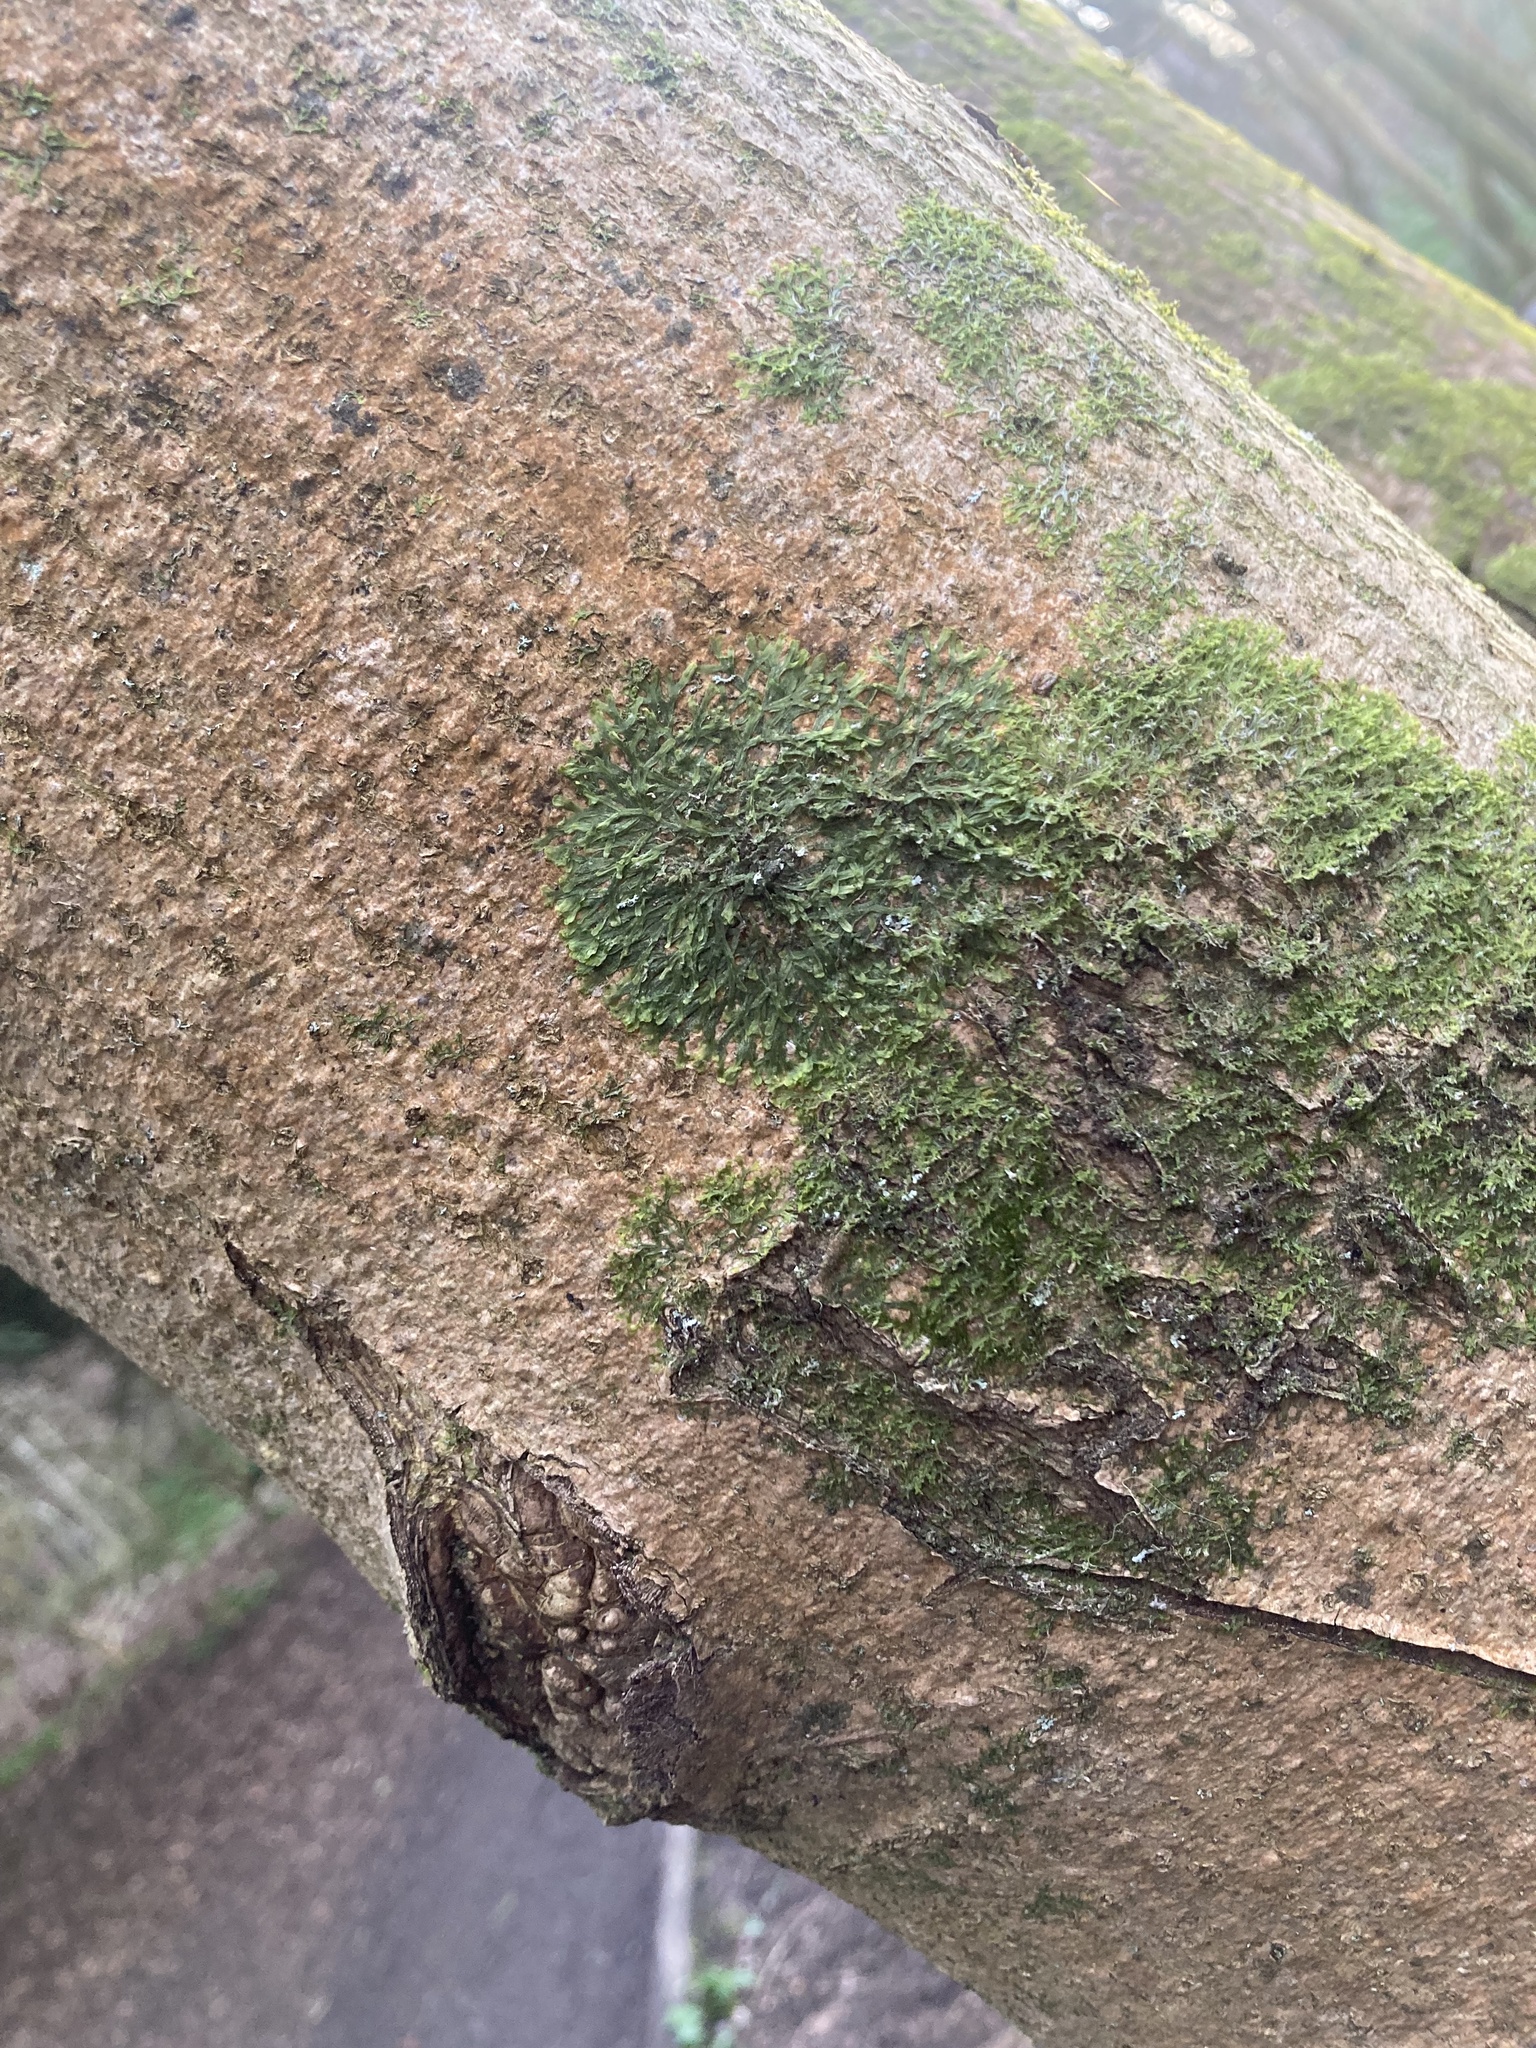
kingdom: Plantae
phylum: Marchantiophyta
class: Jungermanniopsida
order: Metzgeriales
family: Metzgeriaceae
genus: Metzgeria
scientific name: Metzgeria furcata
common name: Forked veilwort
